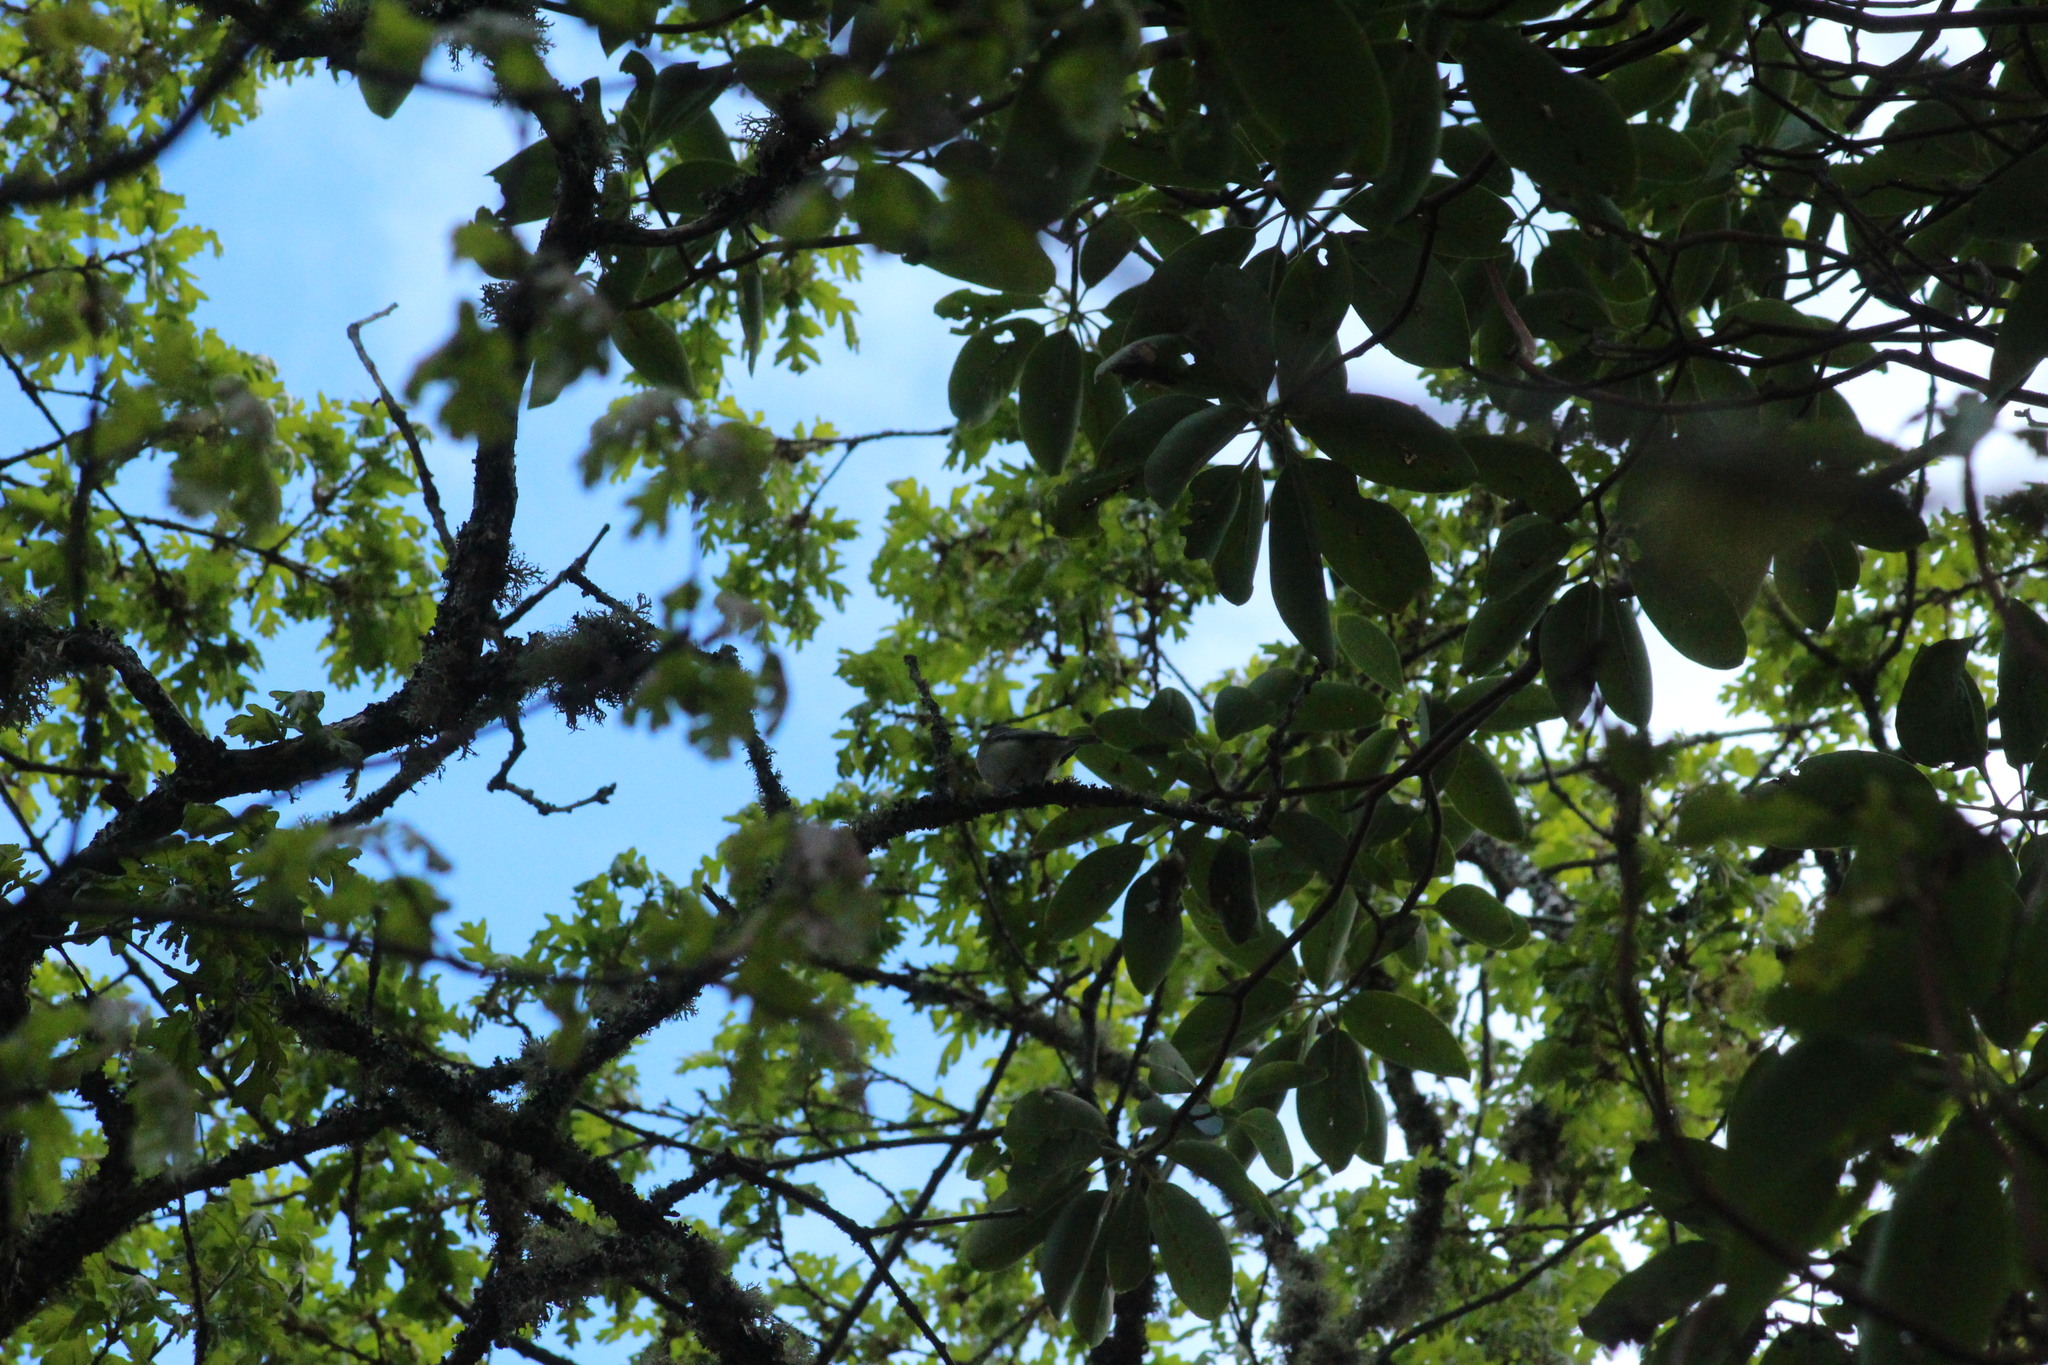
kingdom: Animalia
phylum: Chordata
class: Aves
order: Passeriformes
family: Vireonidae
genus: Vireo
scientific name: Vireo cassinii
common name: Cassin's vireo
